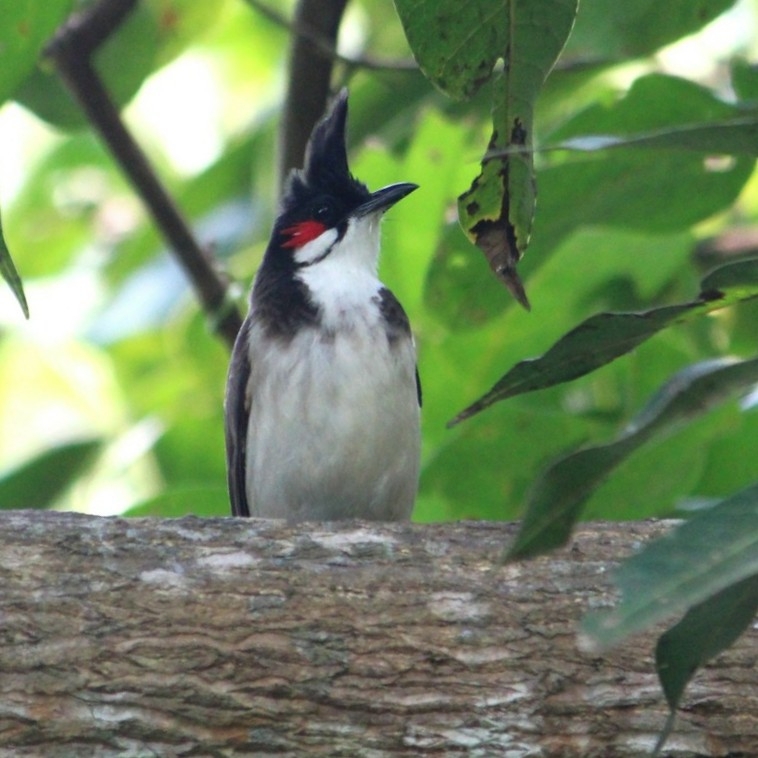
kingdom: Animalia
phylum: Chordata
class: Aves
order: Passeriformes
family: Pycnonotidae
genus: Pycnonotus
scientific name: Pycnonotus jocosus
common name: Red-whiskered bulbul
